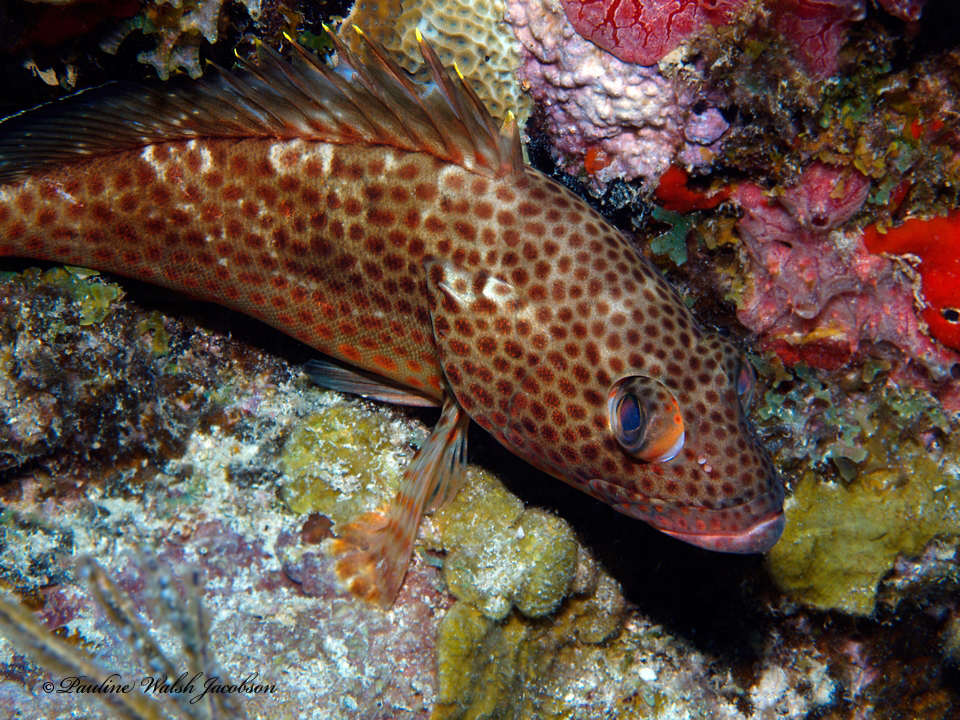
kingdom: Animalia
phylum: Chordata
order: Perciformes
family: Serranidae
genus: Epinephelus
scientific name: Epinephelus guttatus
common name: Red hind
